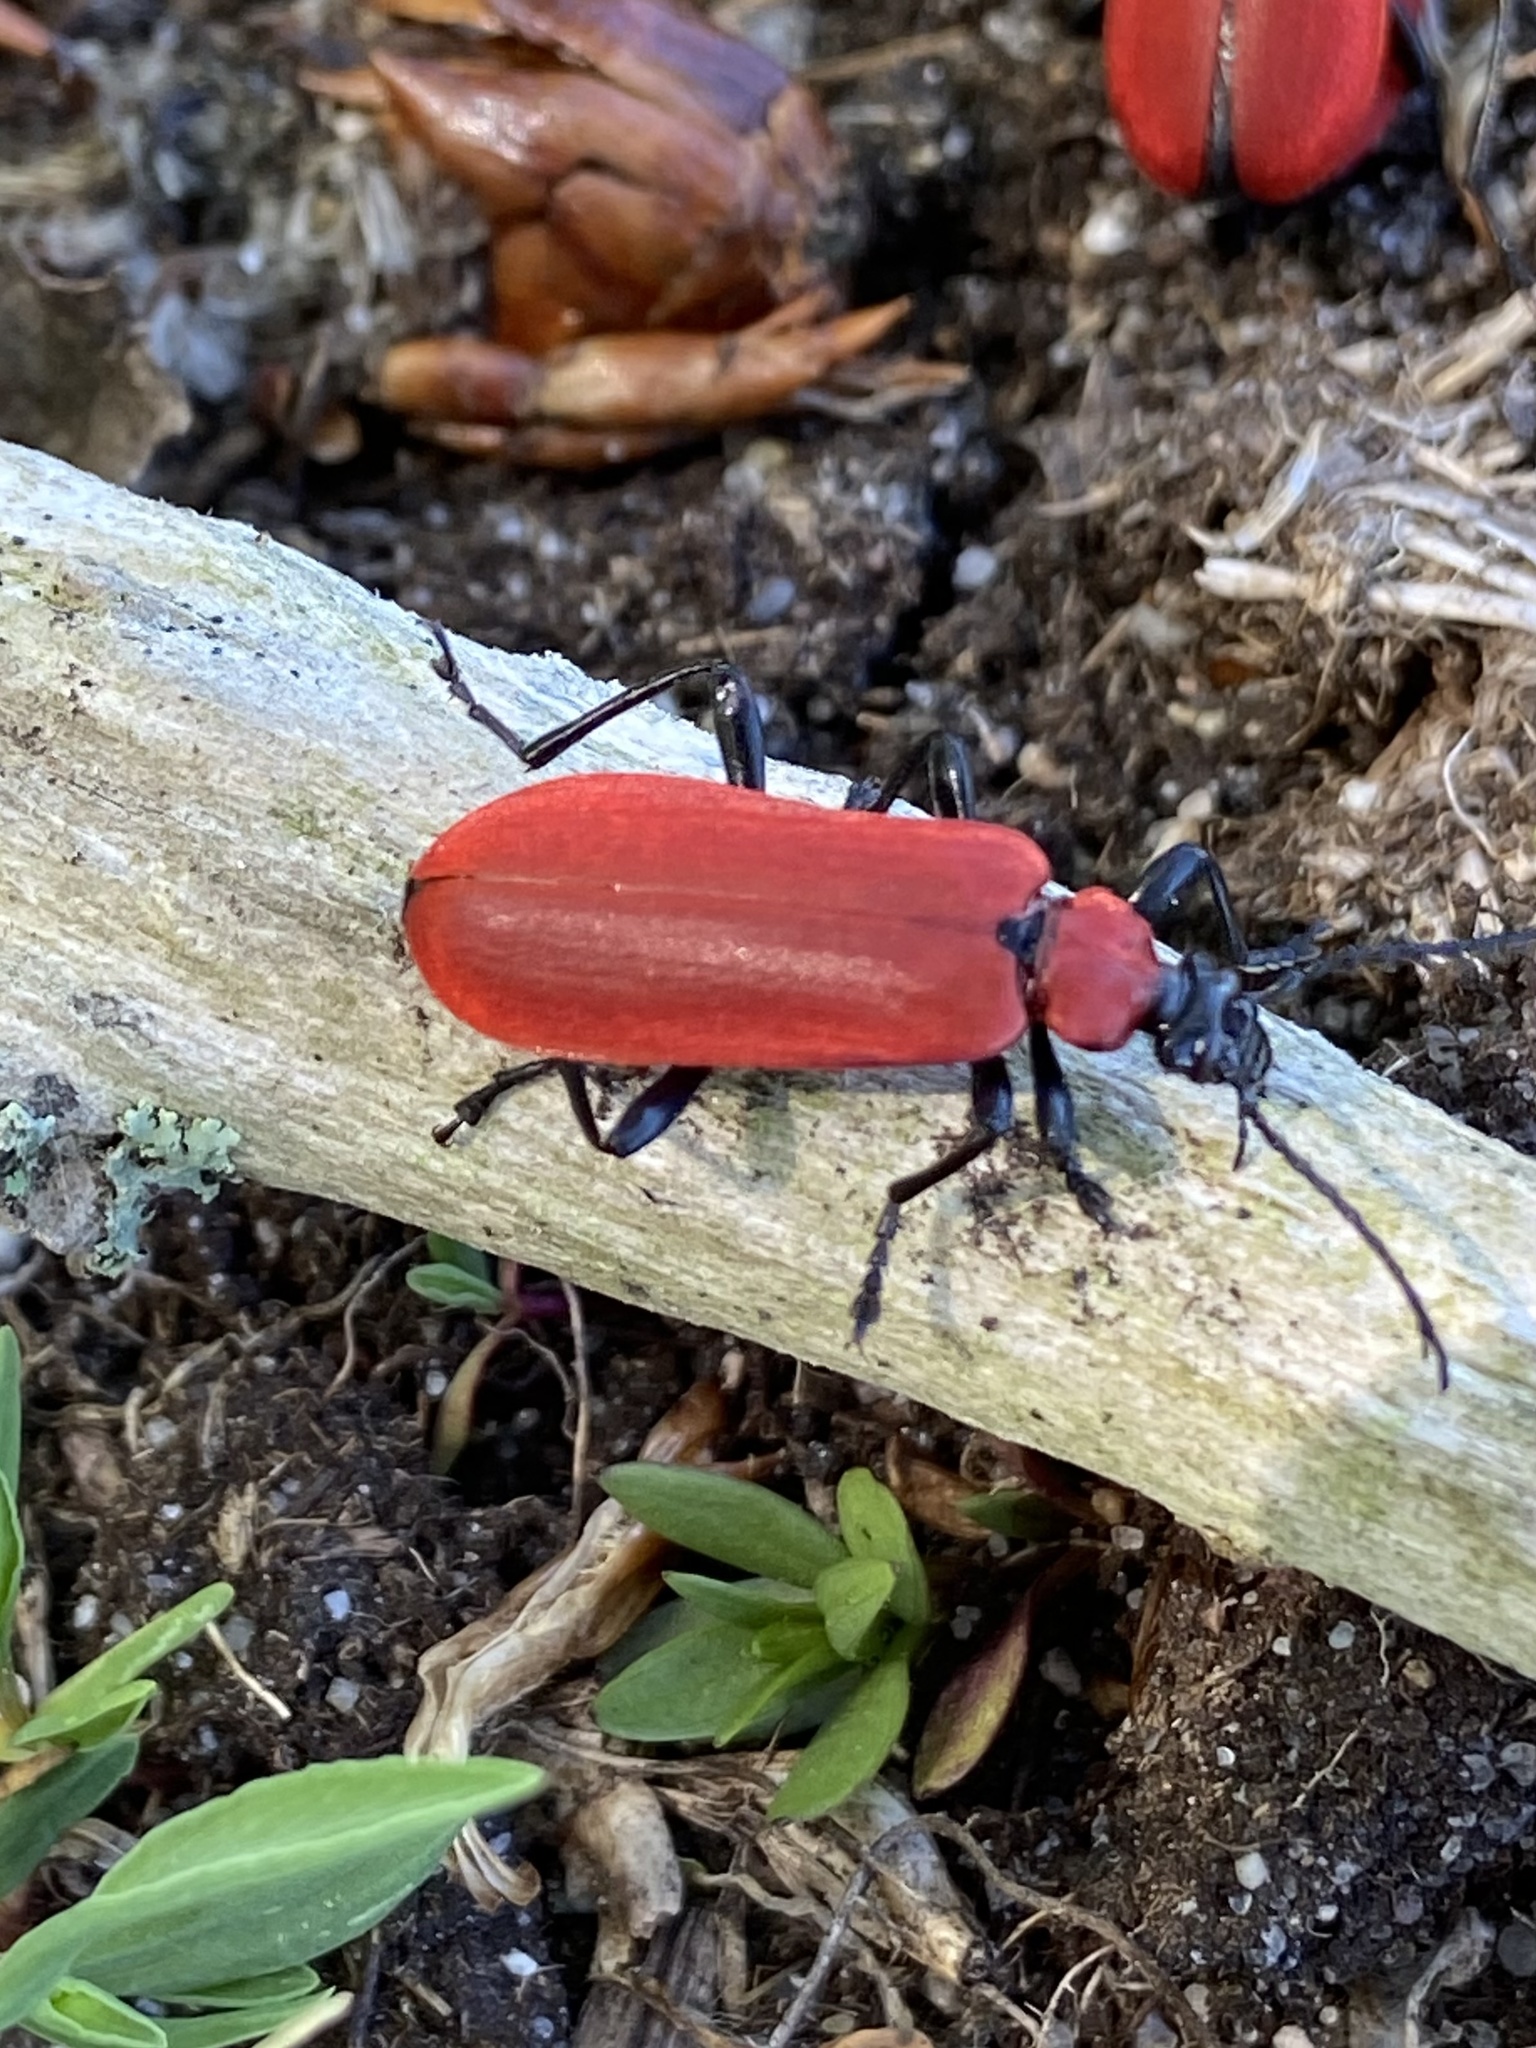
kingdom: Animalia
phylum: Arthropoda
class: Insecta
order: Coleoptera
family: Pyrochroidae
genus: Pyrochroa
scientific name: Pyrochroa coccinea
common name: Black-headed cardinal beetle
